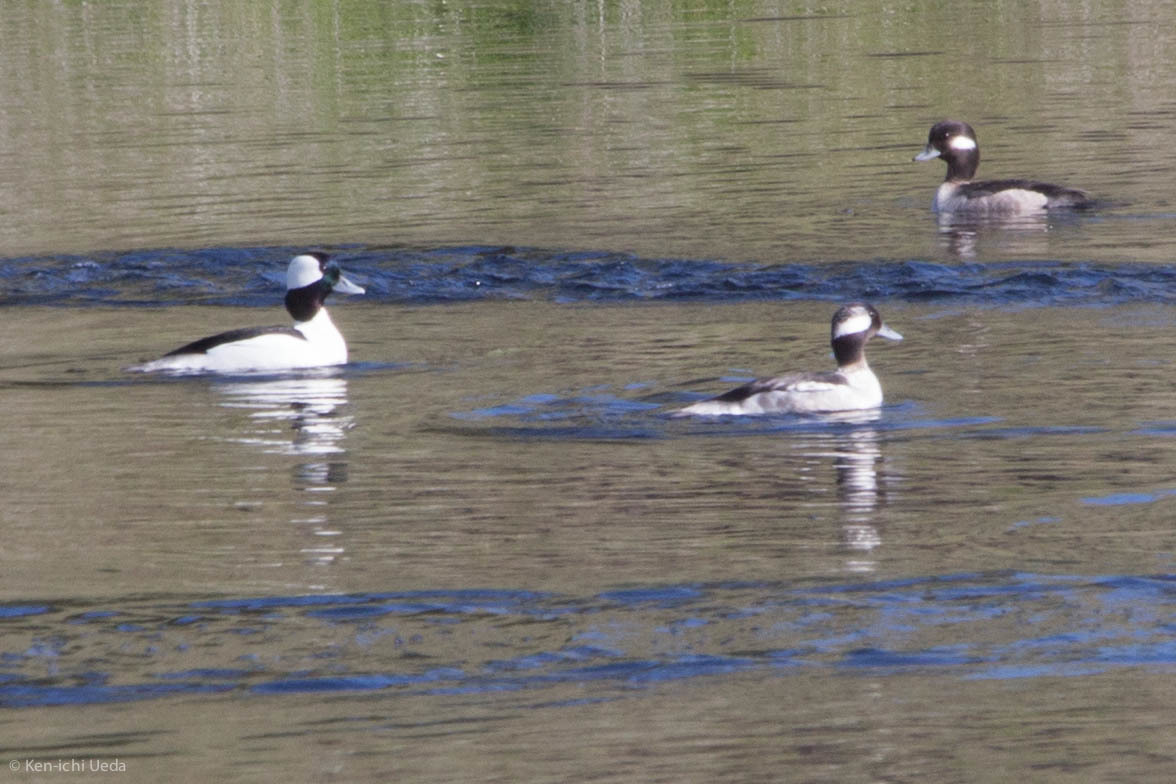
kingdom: Animalia
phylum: Chordata
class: Aves
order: Anseriformes
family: Anatidae
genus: Bucephala
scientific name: Bucephala albeola
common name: Bufflehead
